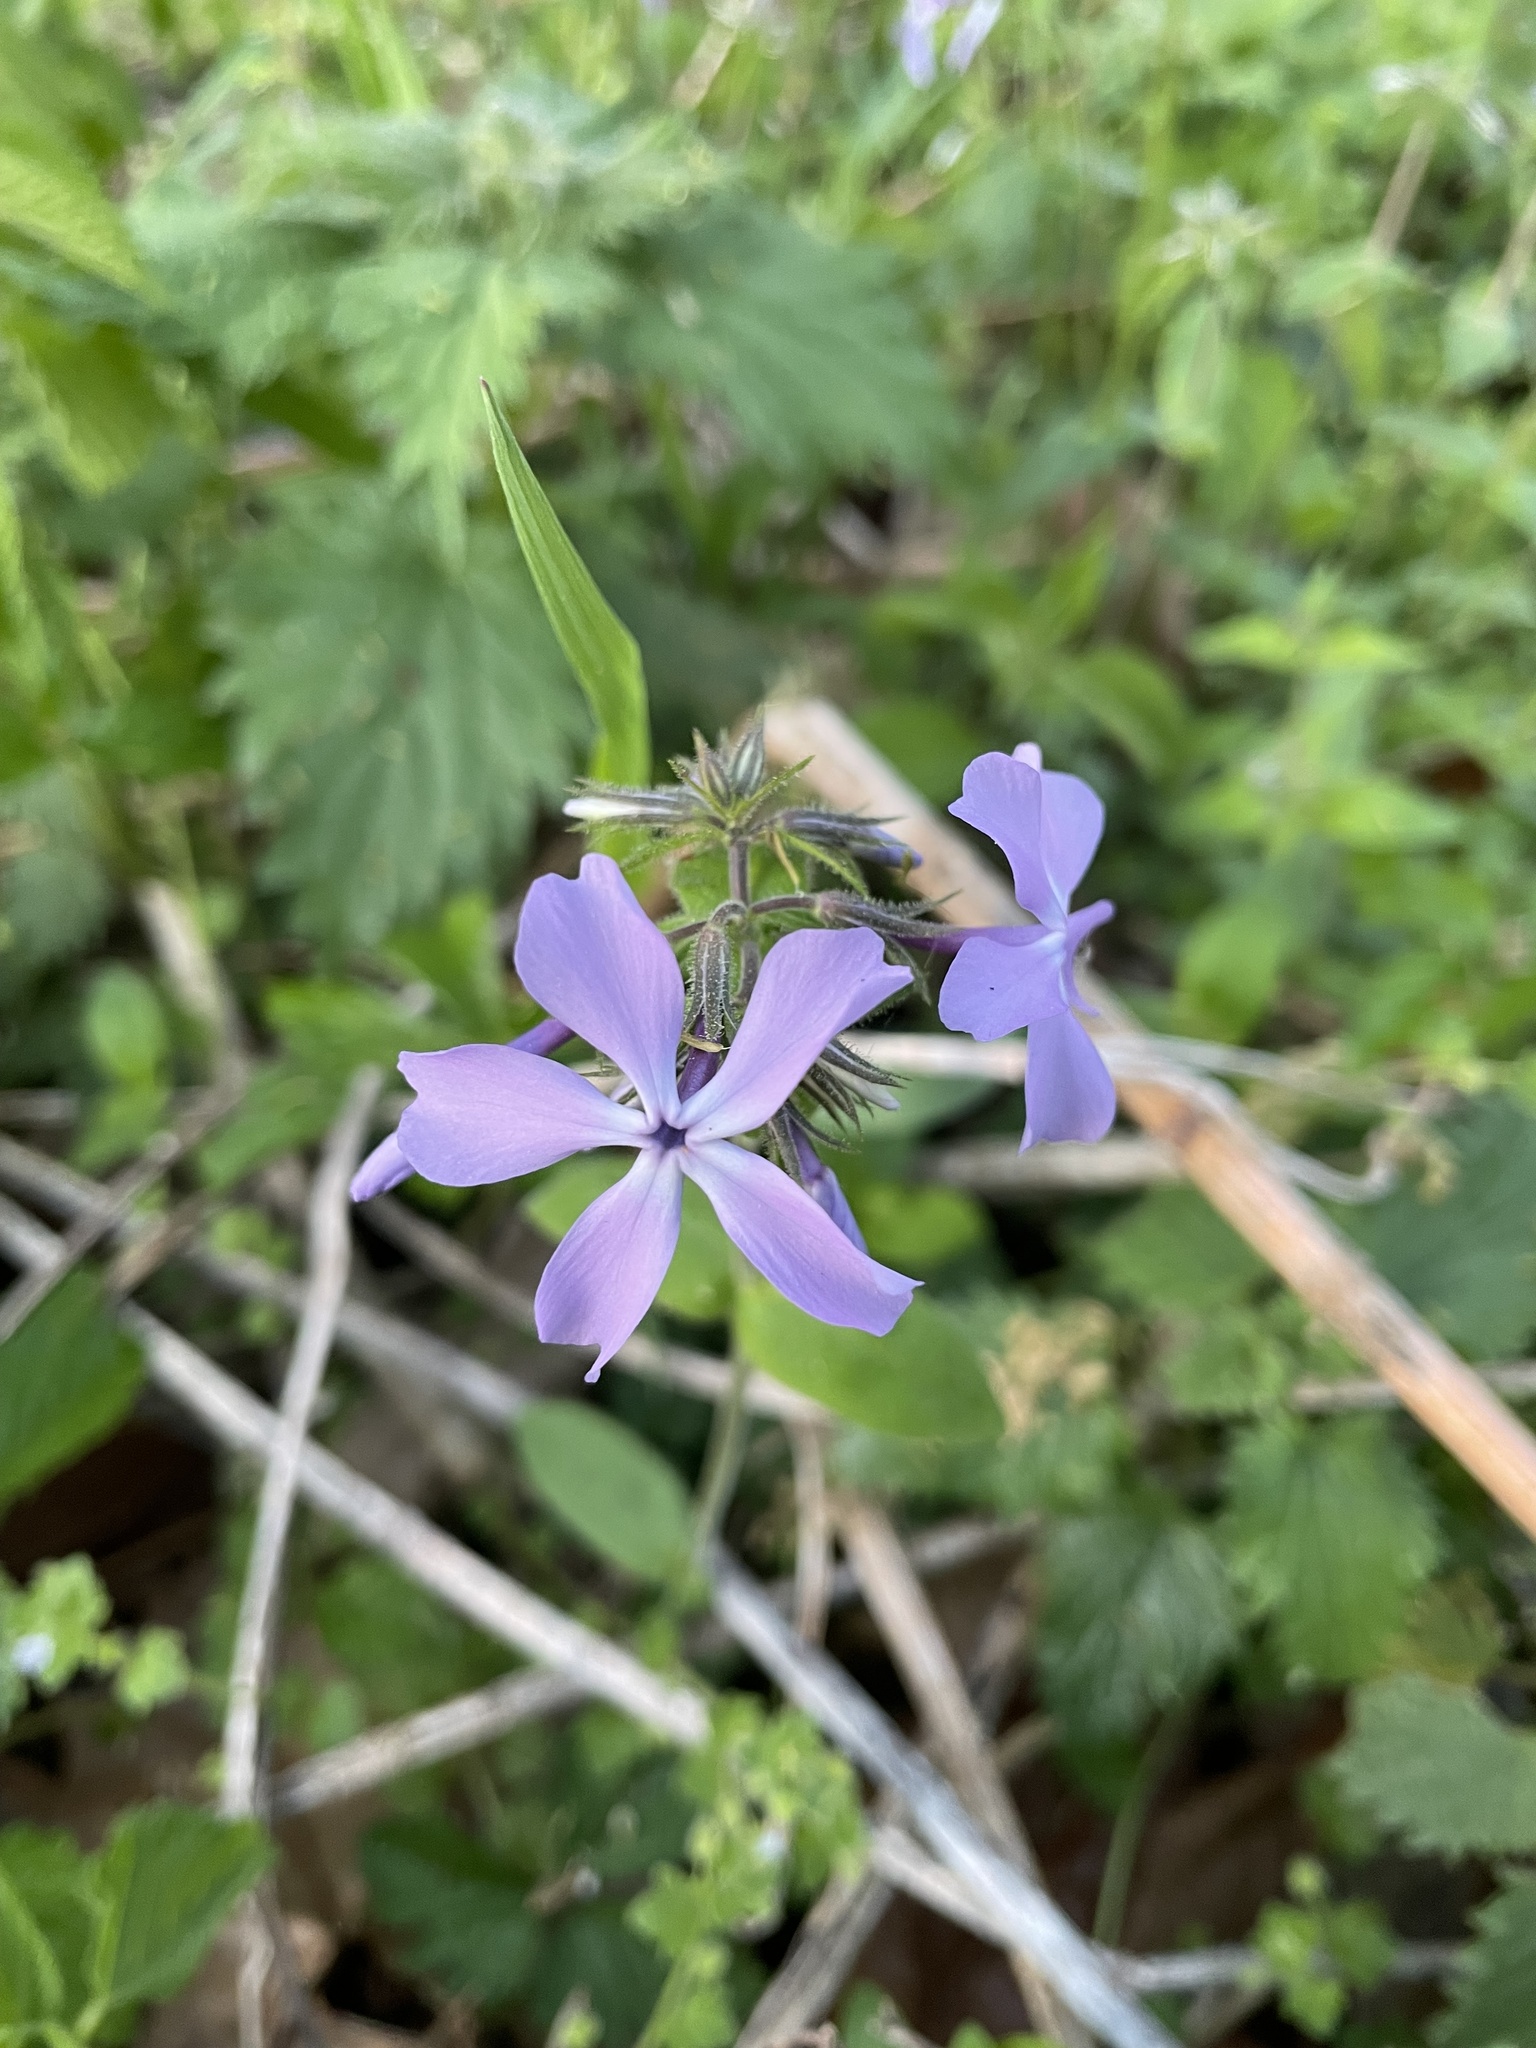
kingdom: Plantae
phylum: Tracheophyta
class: Magnoliopsida
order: Ericales
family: Polemoniaceae
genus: Phlox
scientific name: Phlox divaricata
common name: Blue phlox
